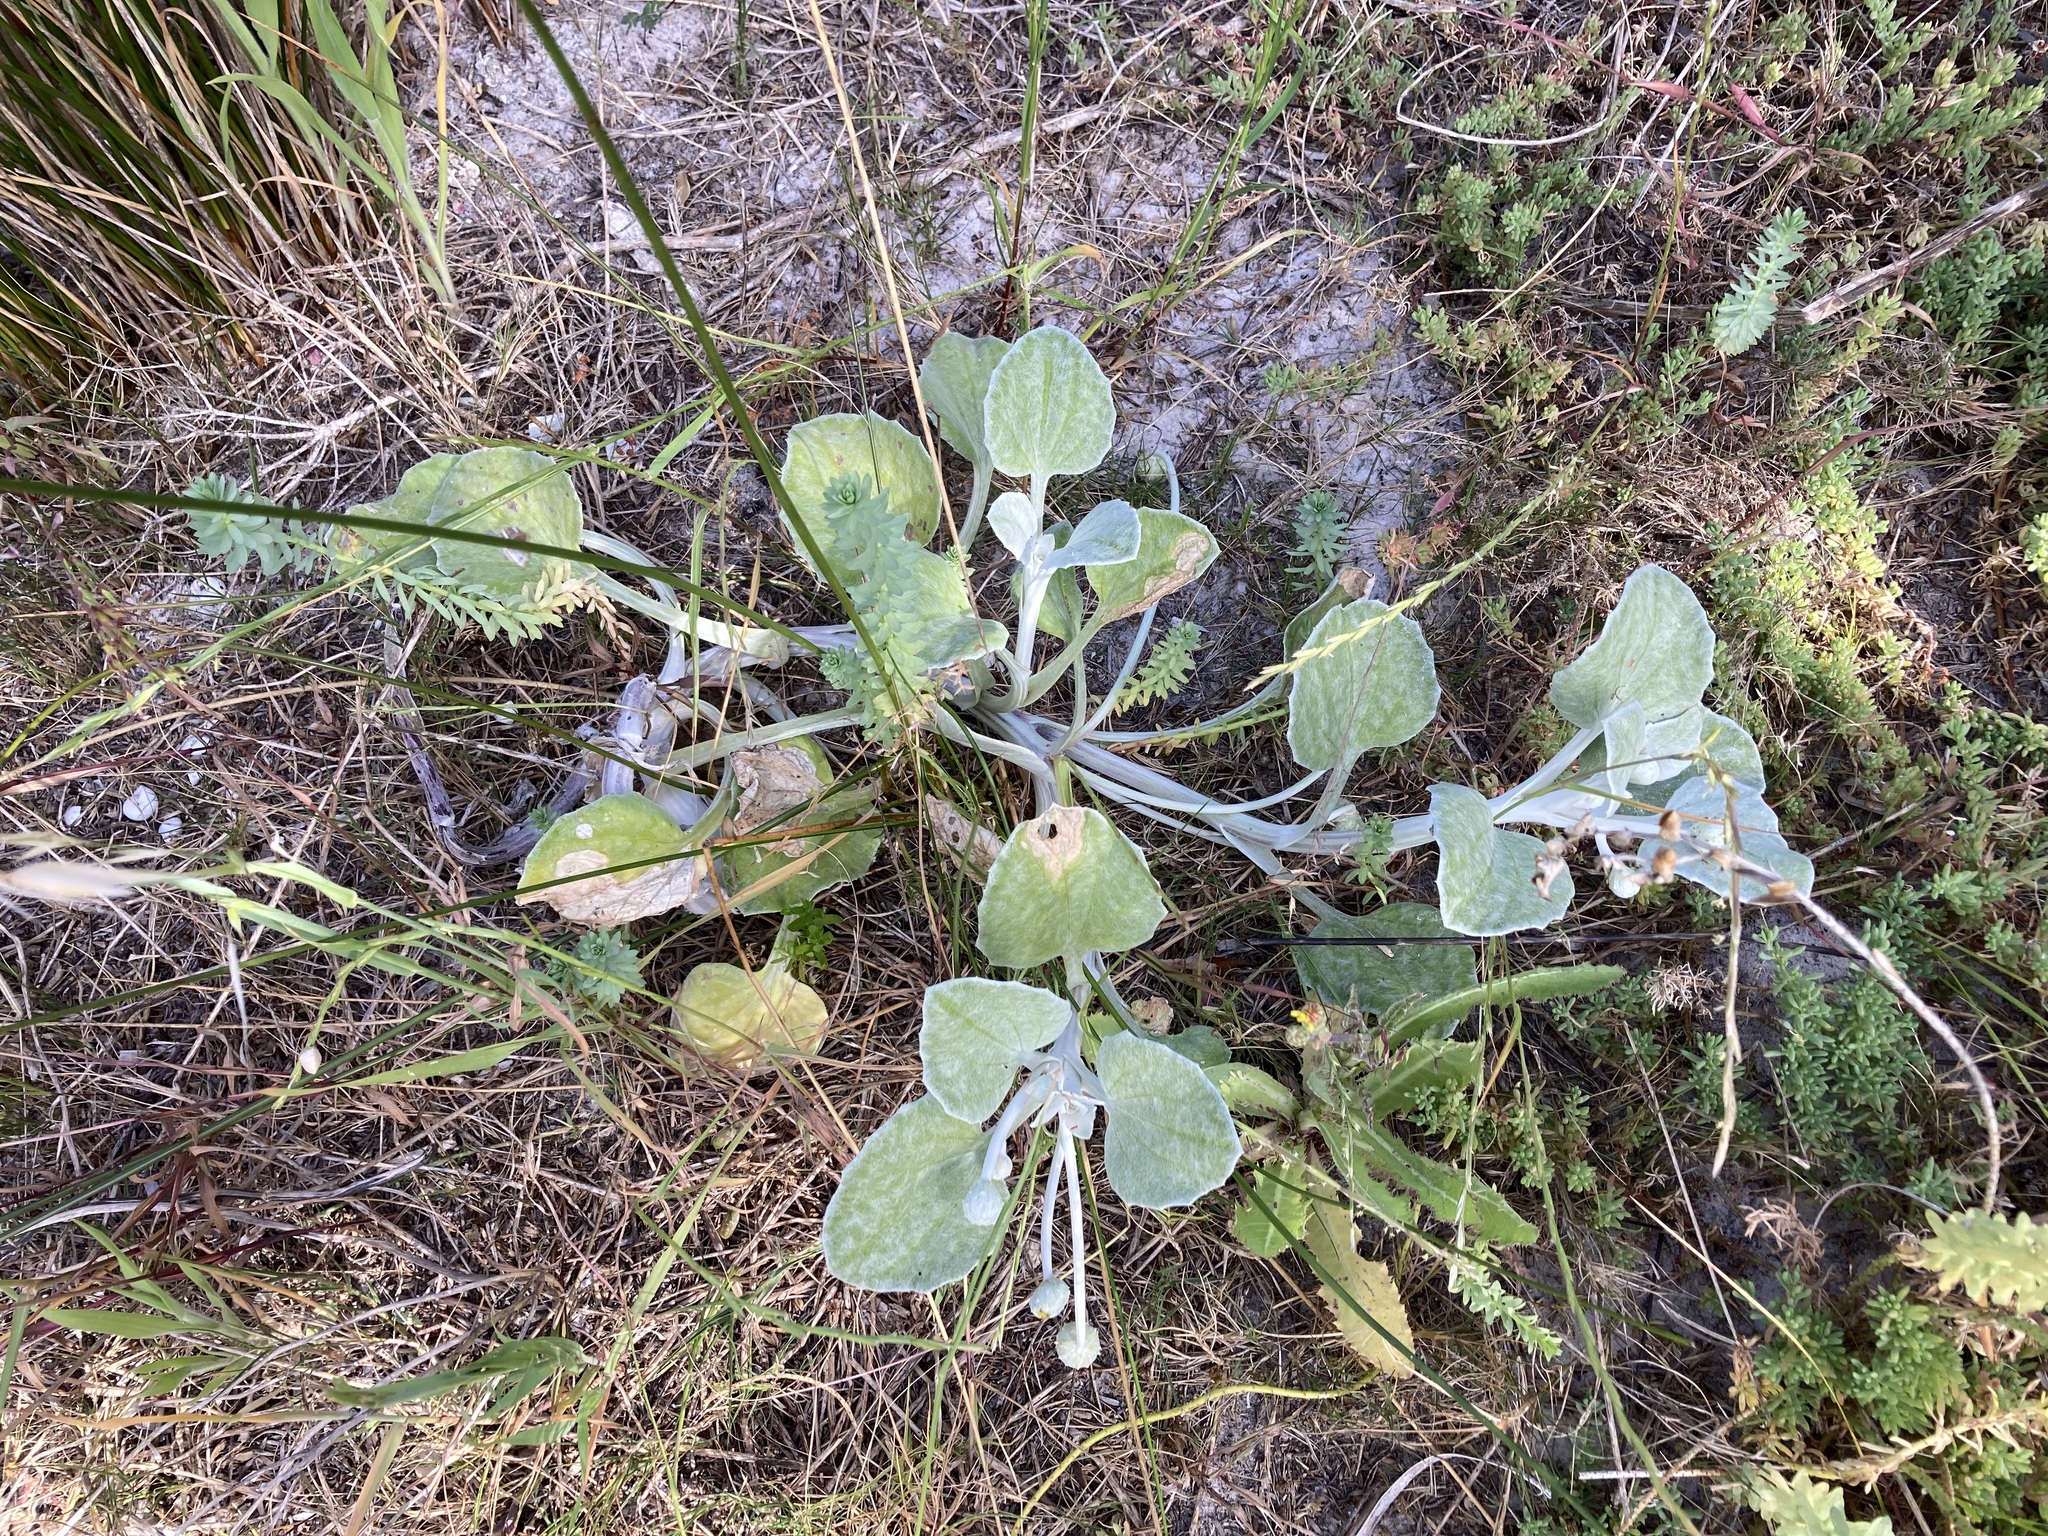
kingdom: Plantae
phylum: Tracheophyta
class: Magnoliopsida
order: Asterales
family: Asteraceae
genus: Arctotheca
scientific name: Arctotheca populifolia
